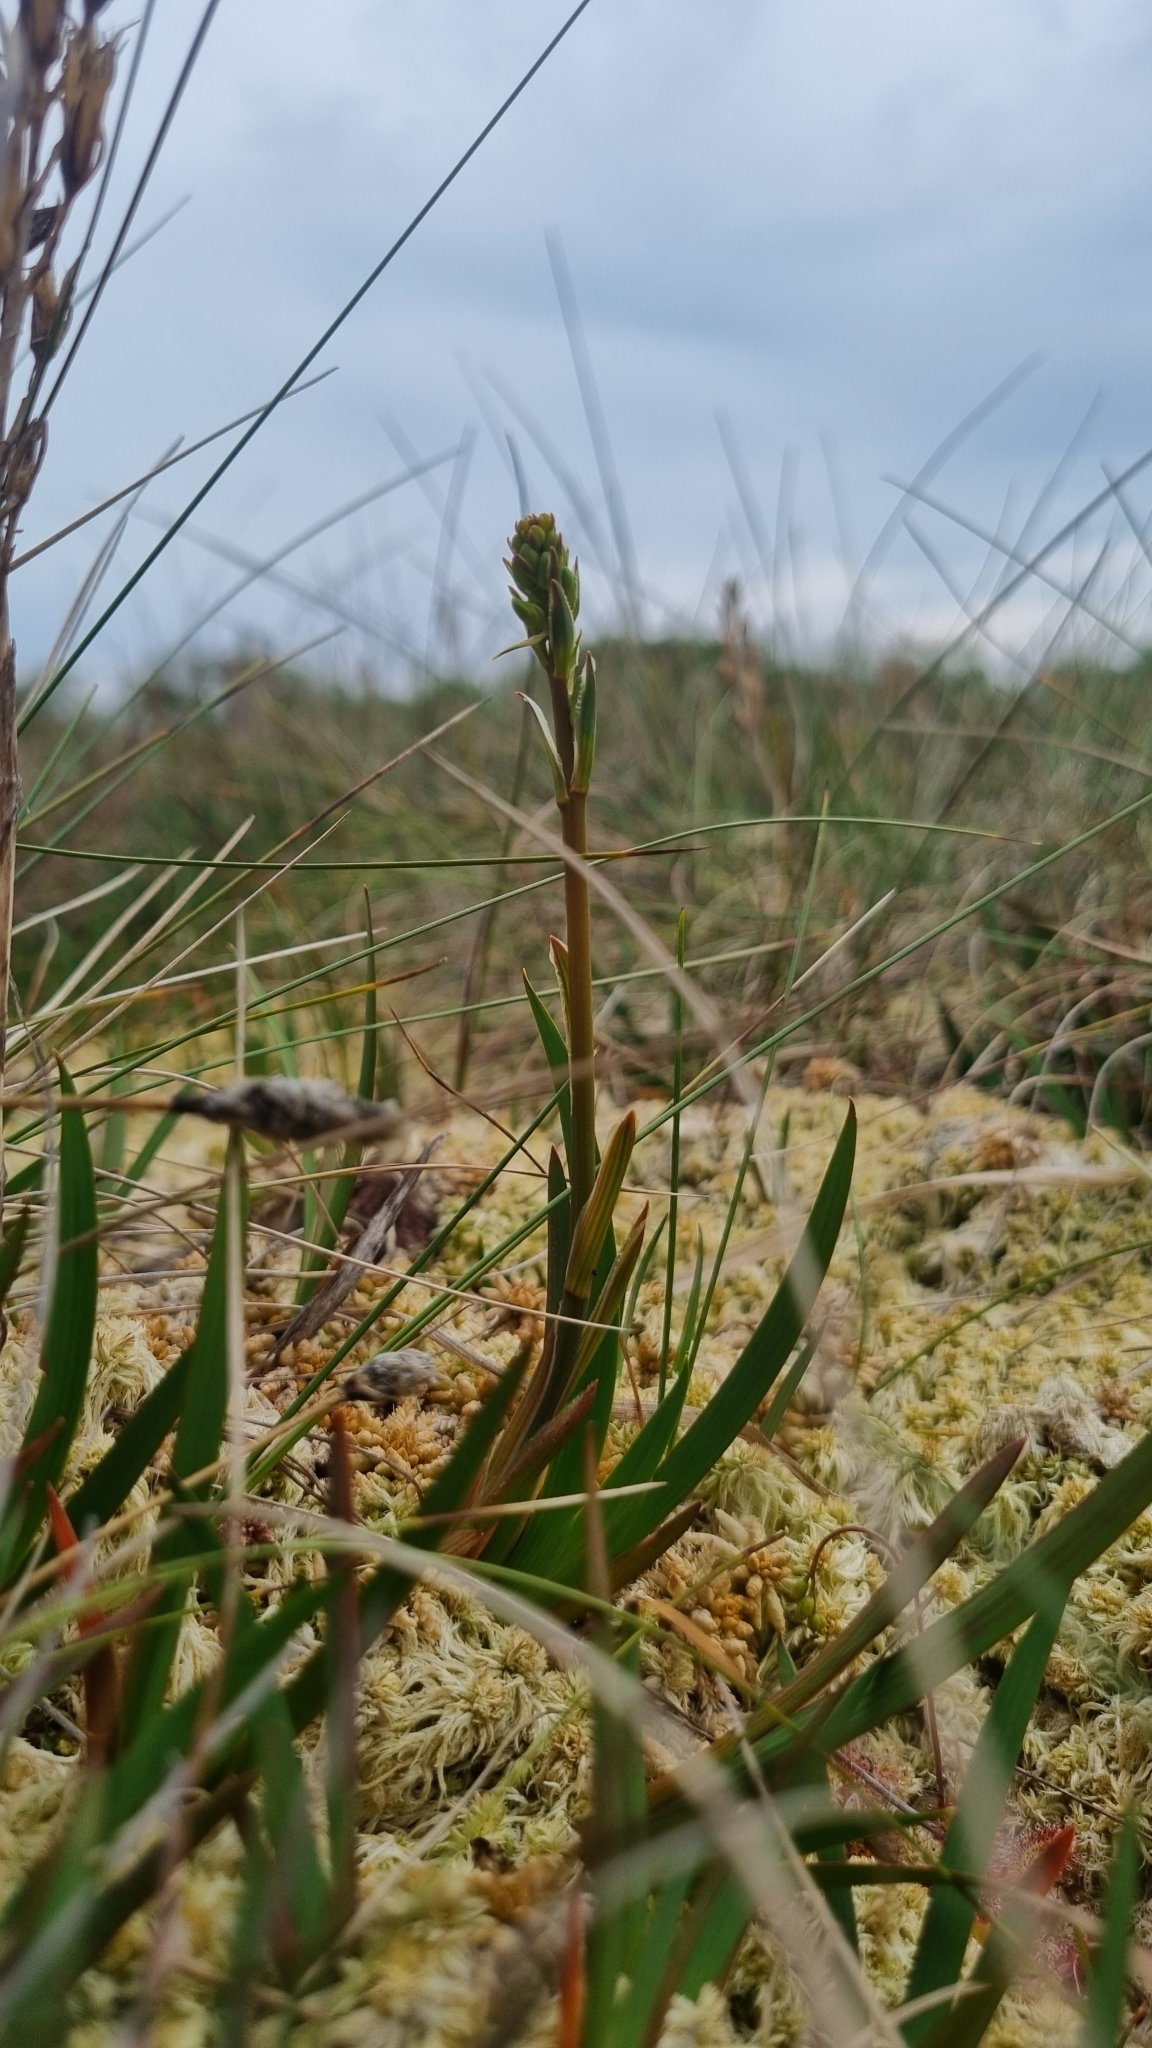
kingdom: Plantae
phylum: Tracheophyta
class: Liliopsida
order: Dioscoreales
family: Nartheciaceae
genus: Narthecium
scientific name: Narthecium ossifragum
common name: Bog asphodel
